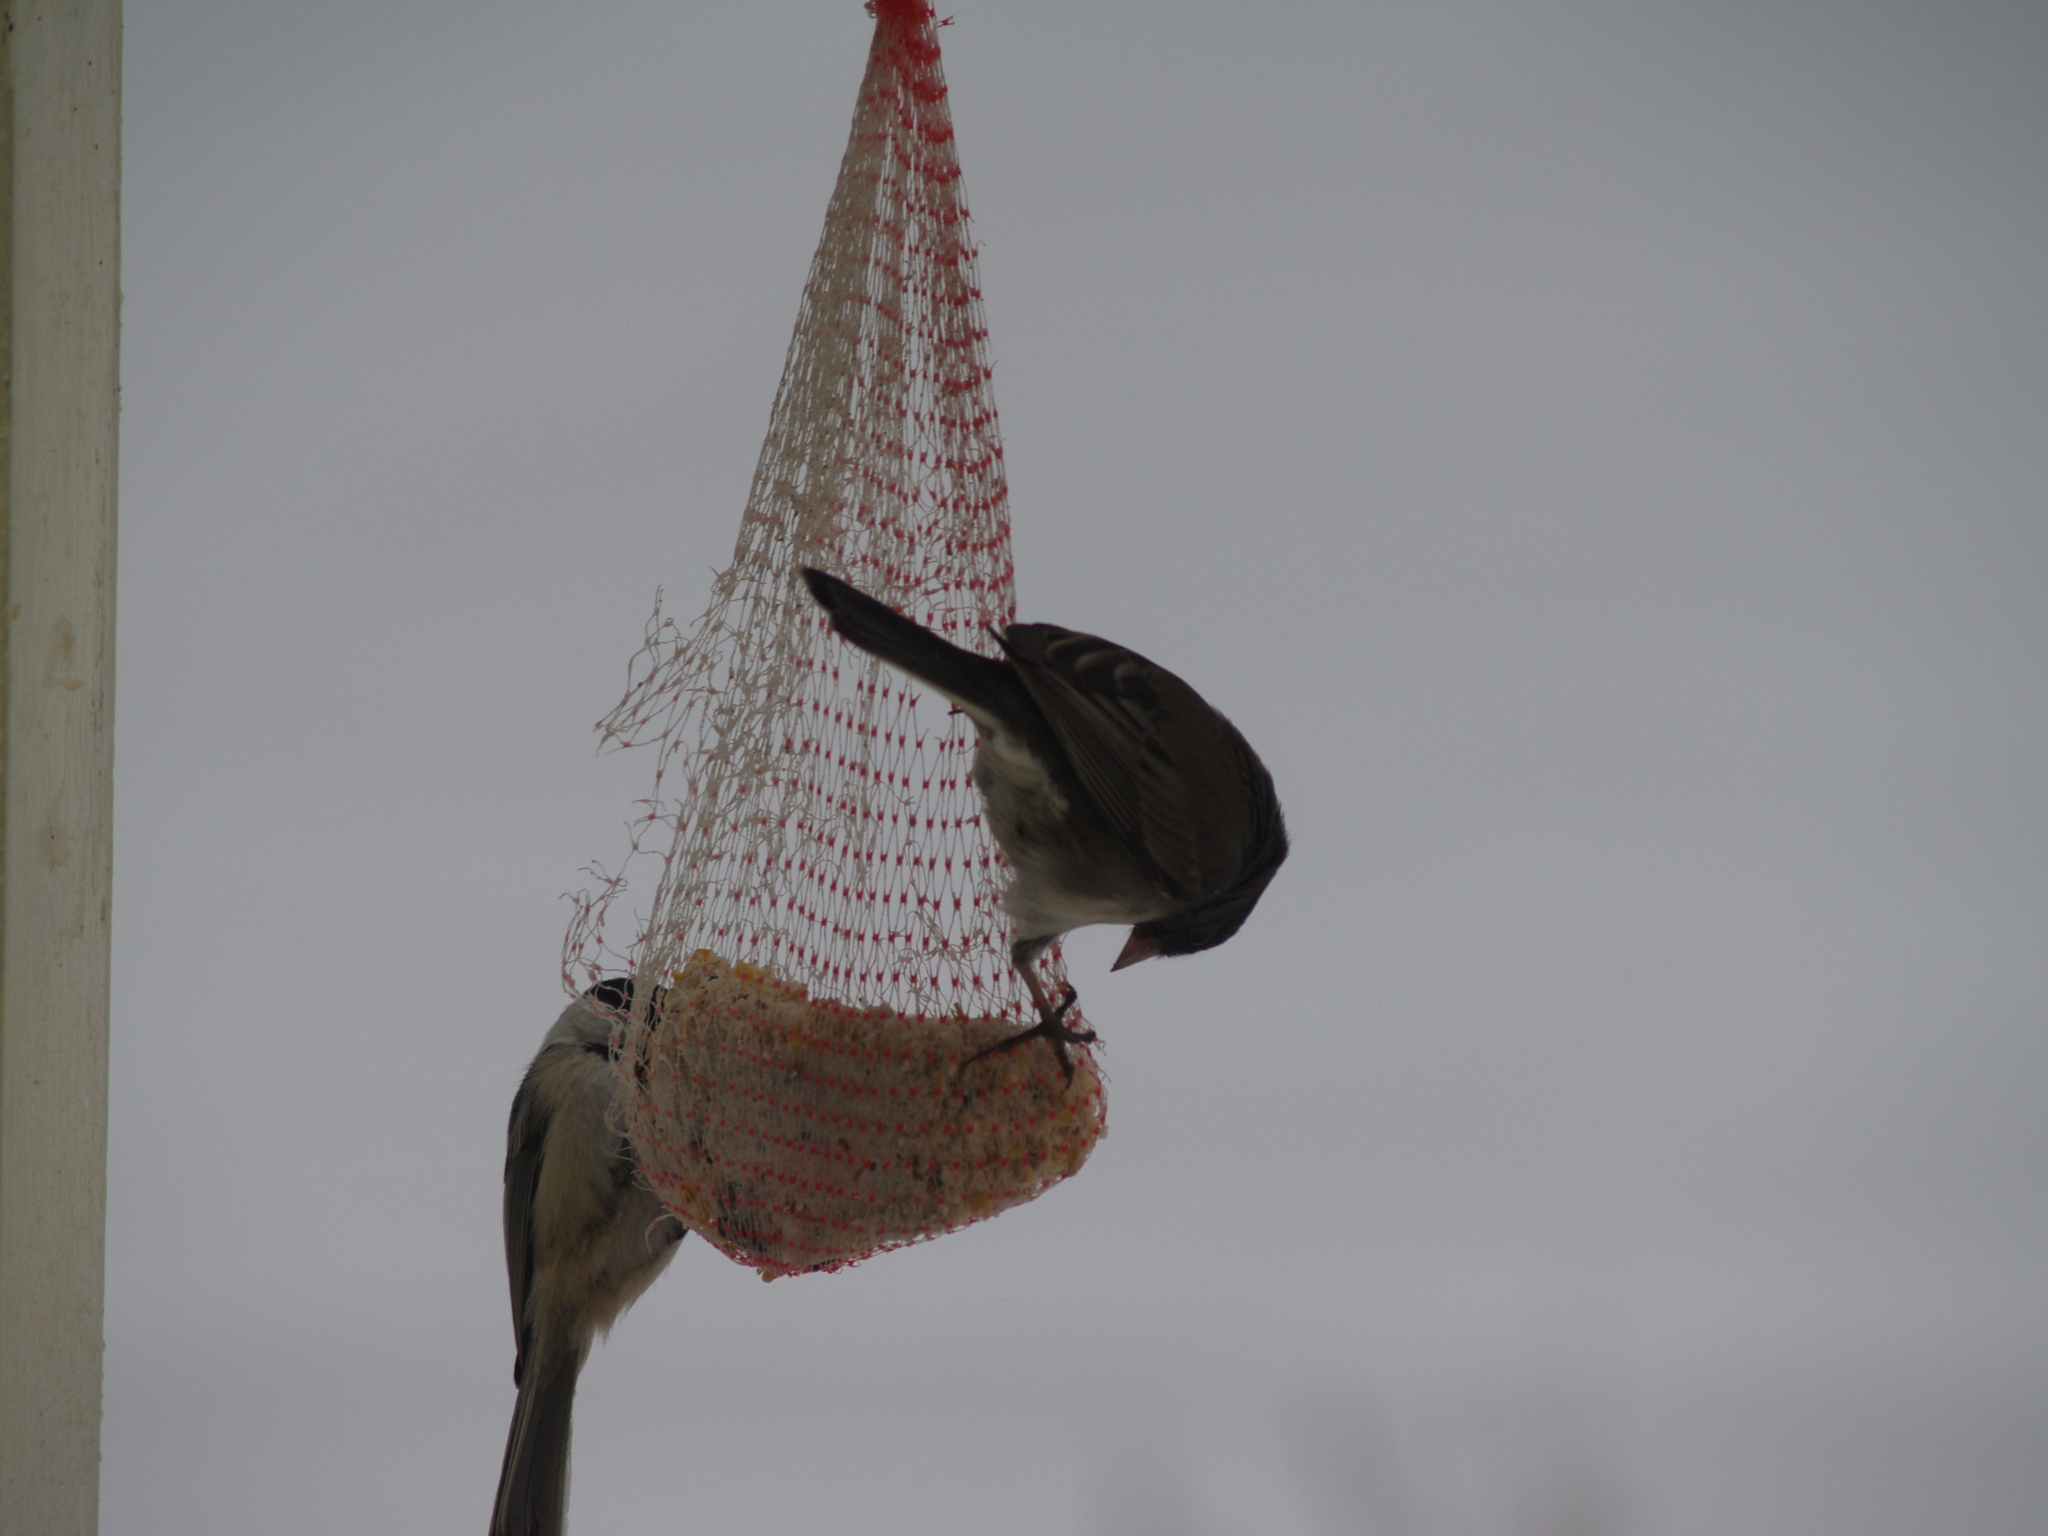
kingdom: Animalia
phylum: Chordata
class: Aves
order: Passeriformes
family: Paridae
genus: Poecile
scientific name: Poecile atricapillus
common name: Black-capped chickadee
